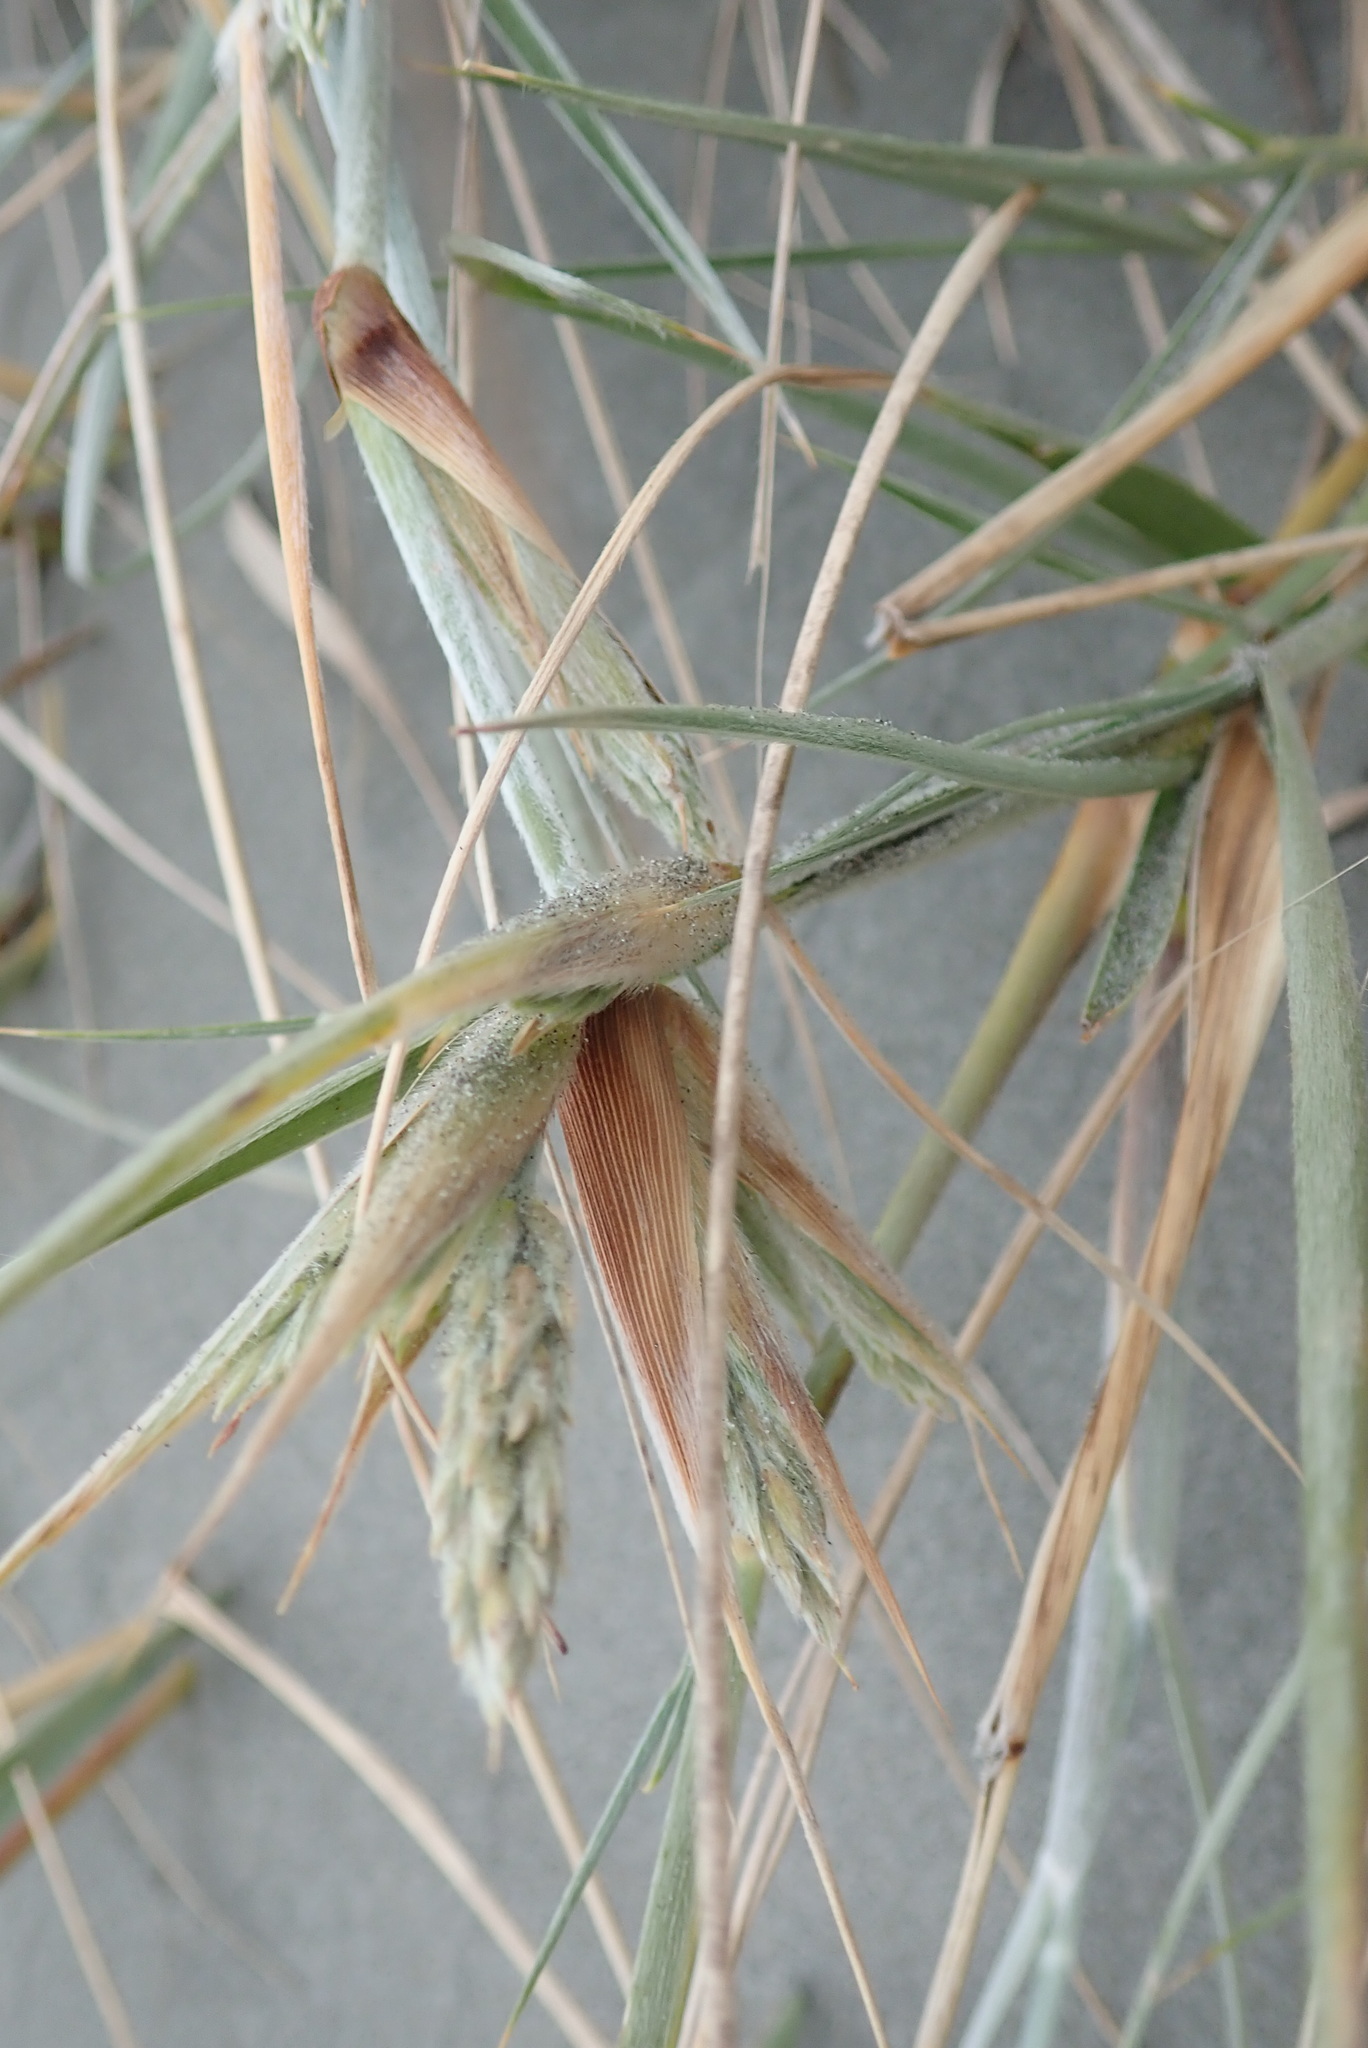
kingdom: Plantae
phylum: Tracheophyta
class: Liliopsida
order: Poales
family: Poaceae
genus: Spinifex
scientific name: Spinifex sericeus
